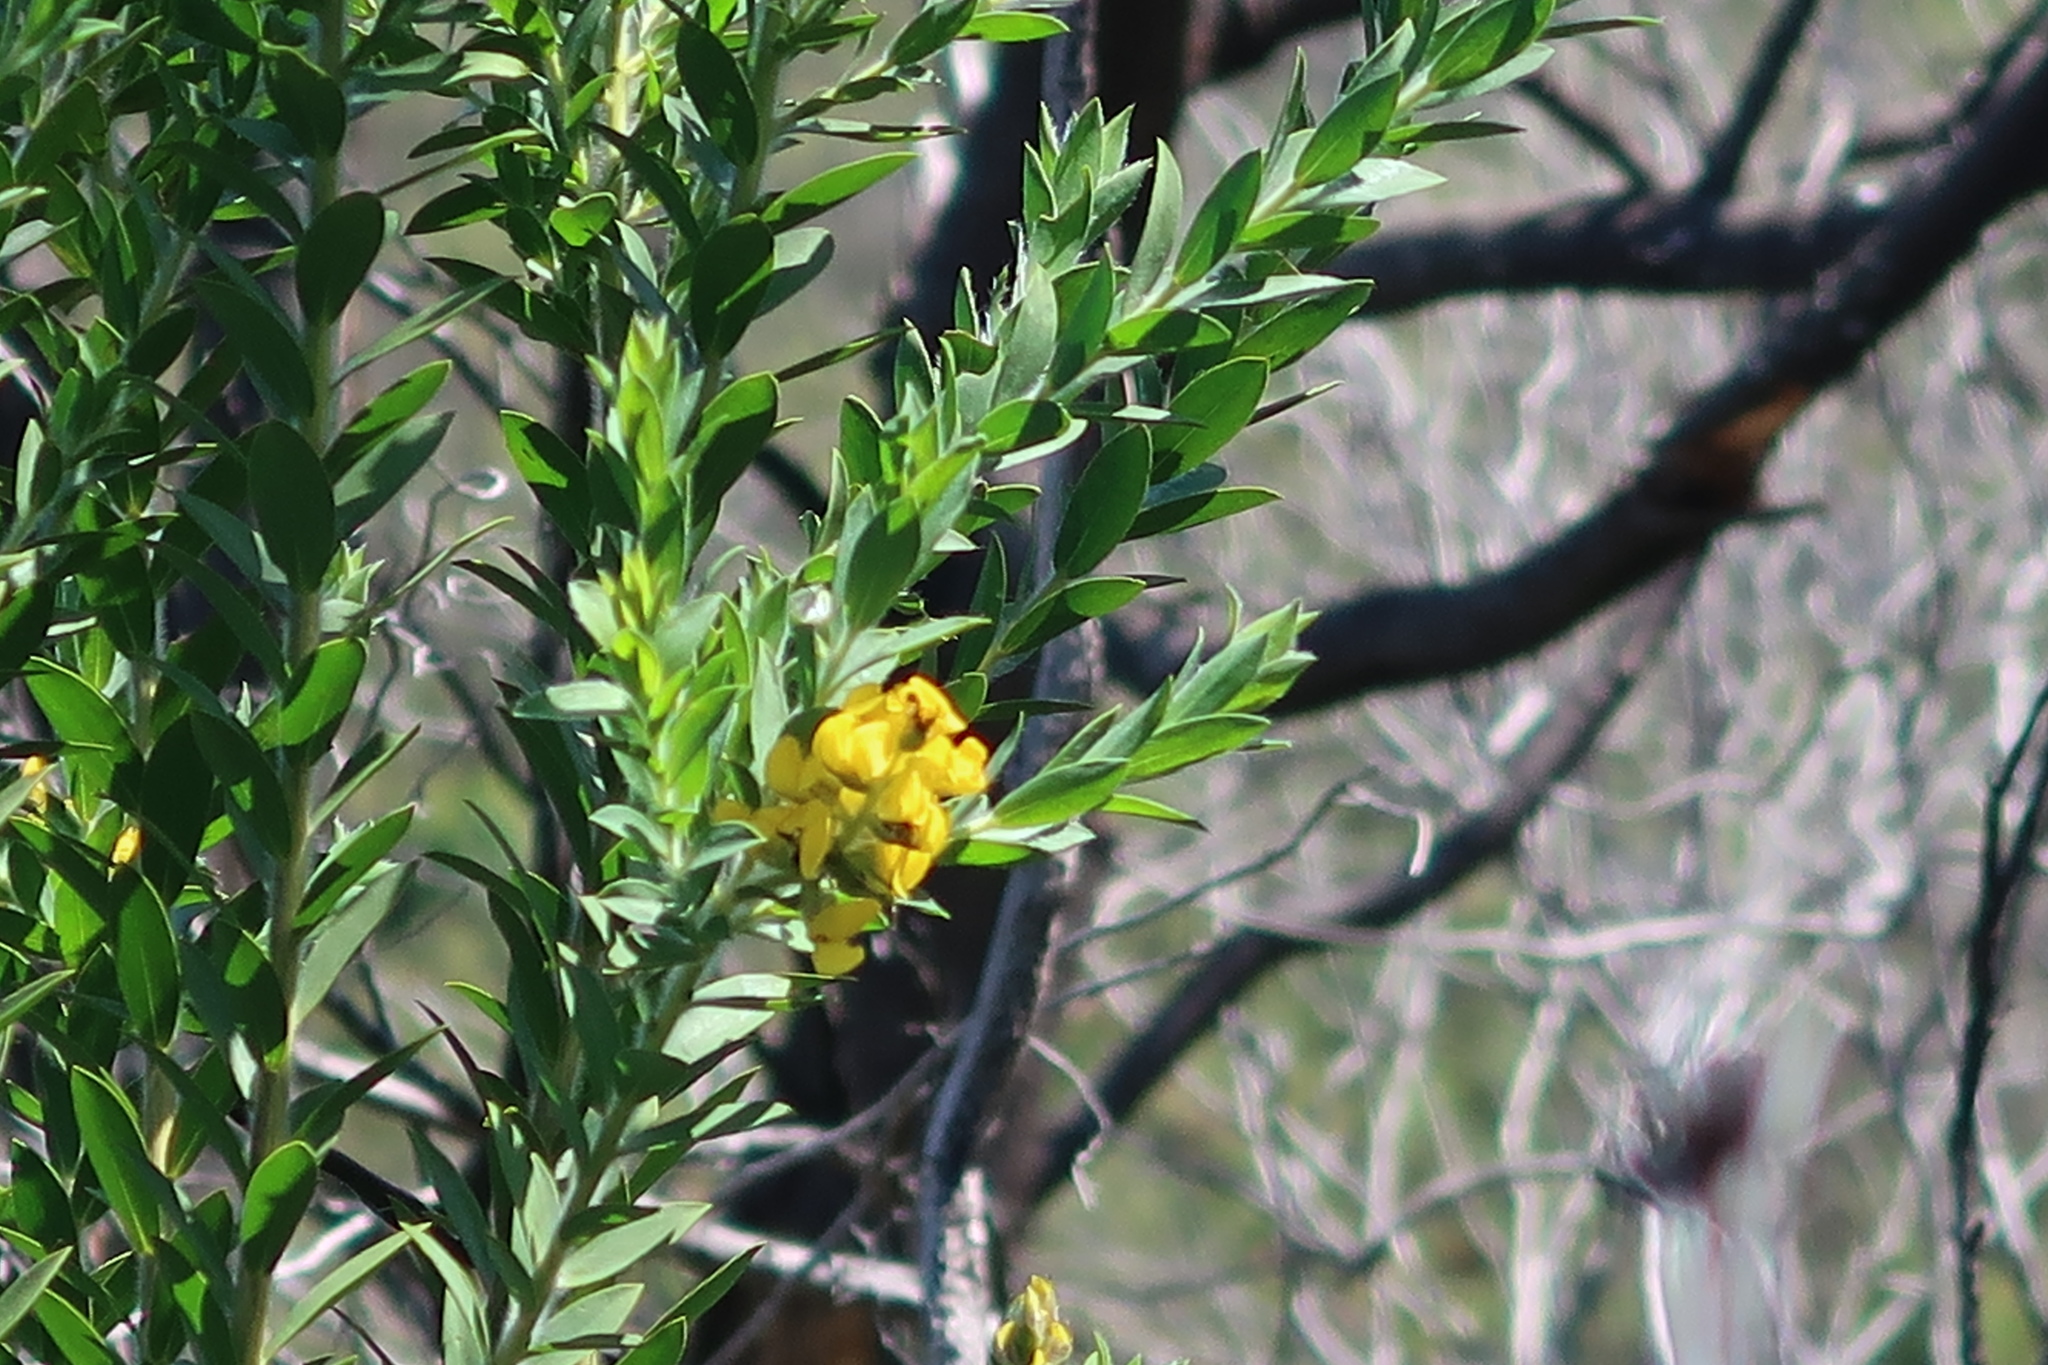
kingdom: Plantae
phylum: Tracheophyta
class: Magnoliopsida
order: Fabales
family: Fabaceae
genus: Liparia
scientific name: Liparia hirsuta
